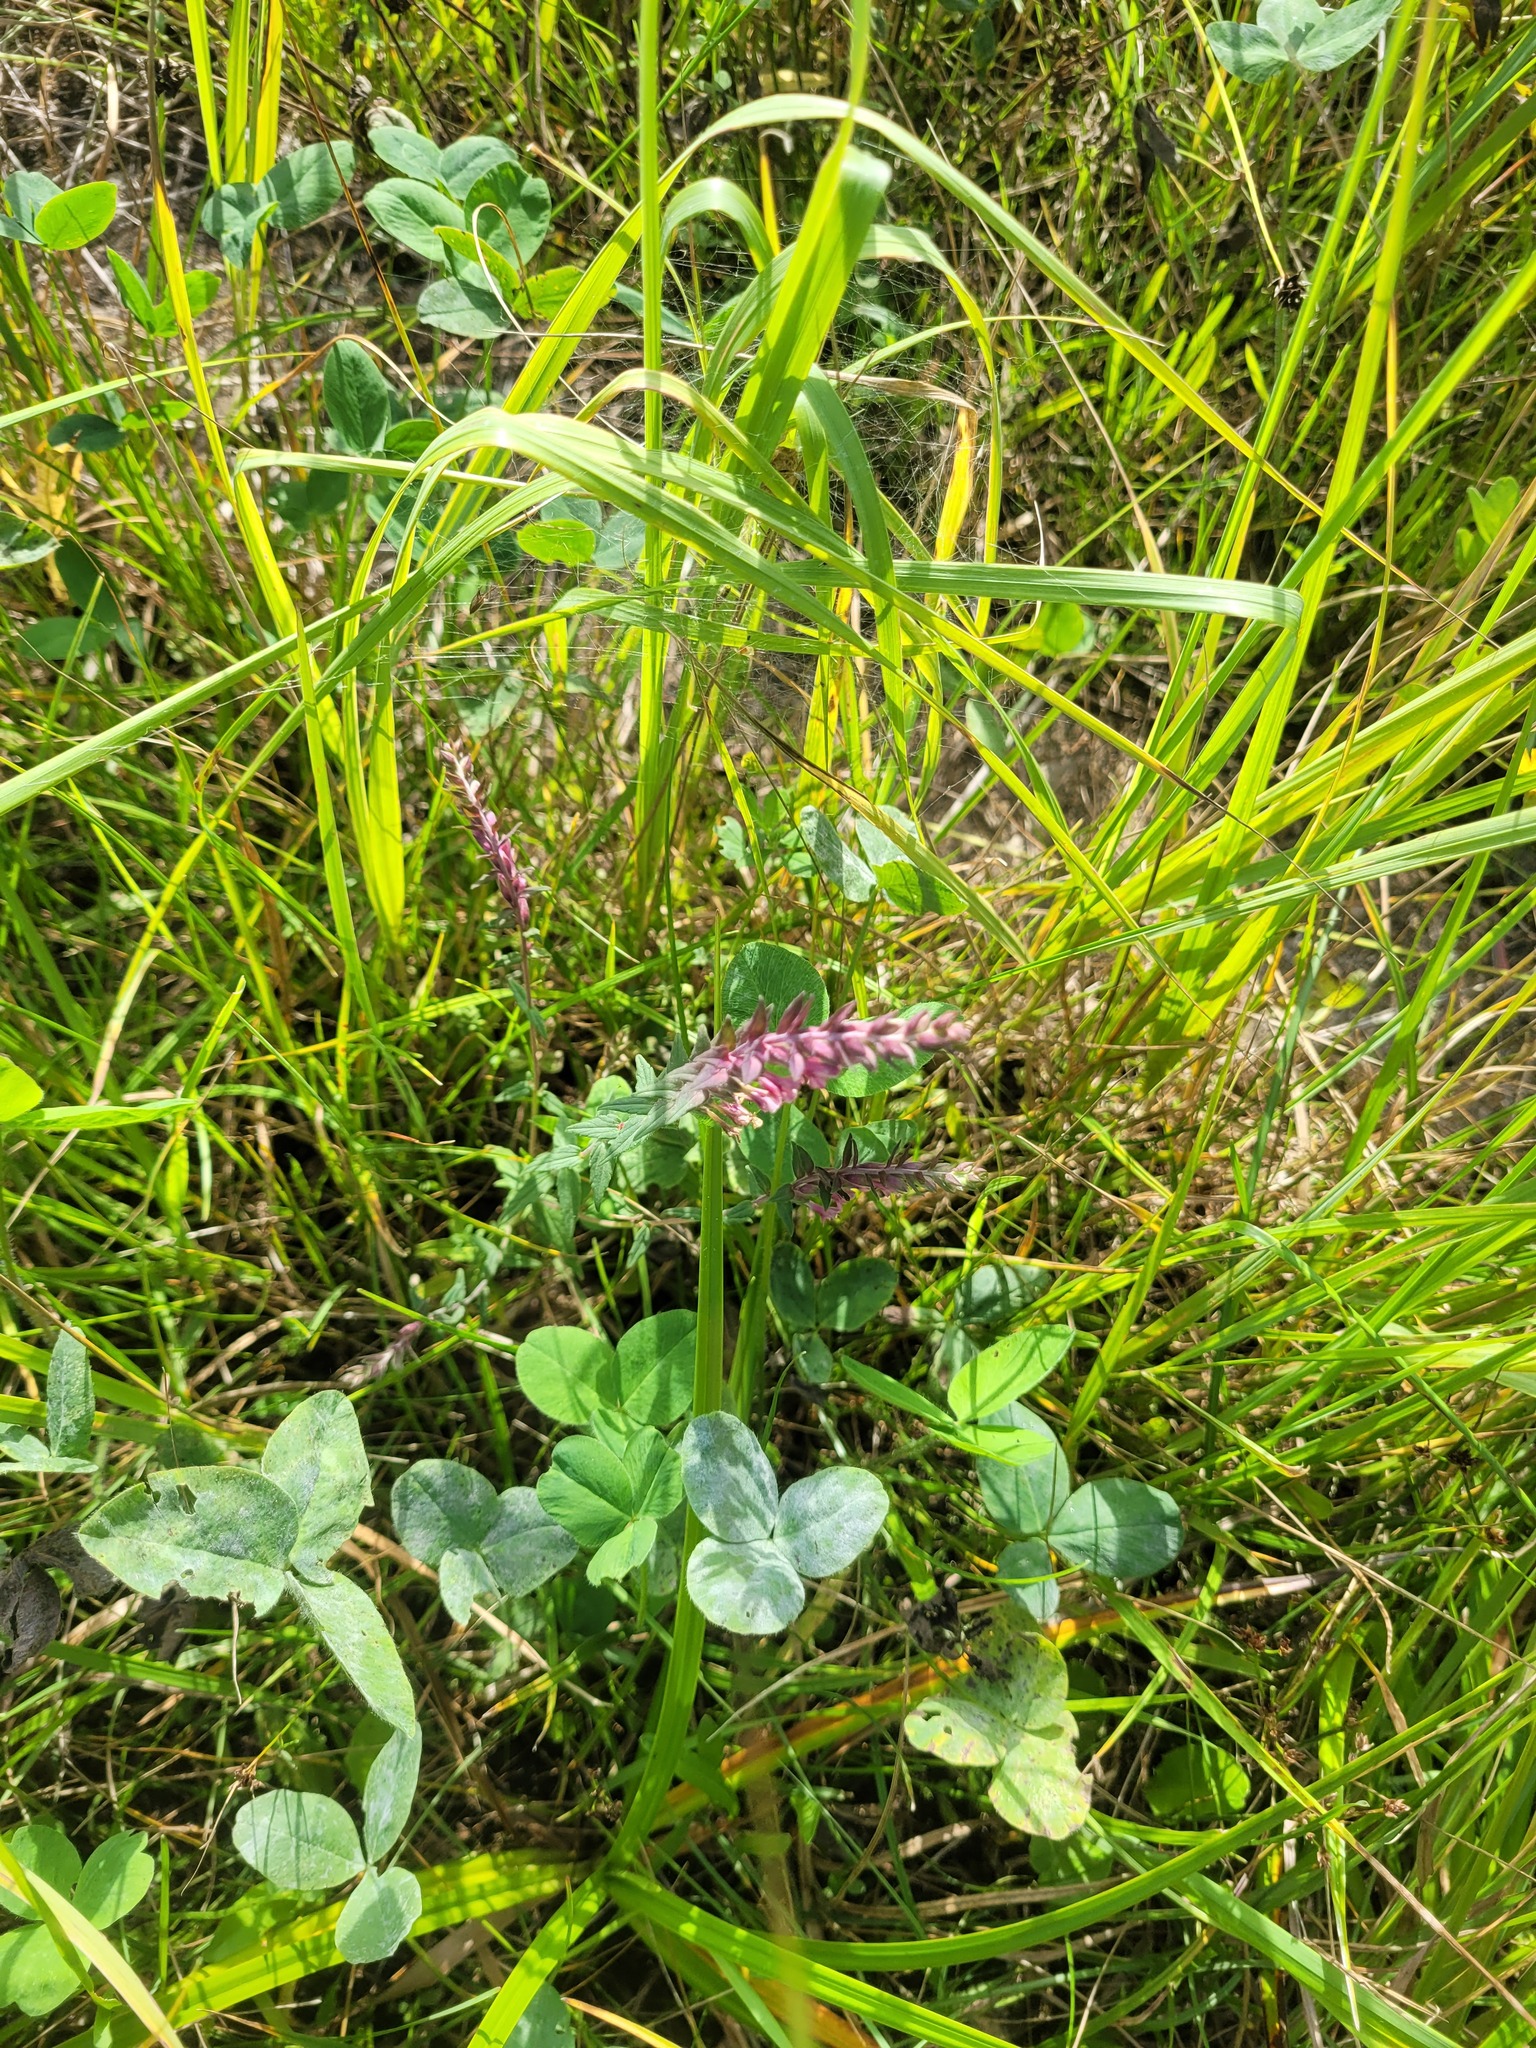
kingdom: Plantae
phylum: Tracheophyta
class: Magnoliopsida
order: Lamiales
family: Orobanchaceae
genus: Odontites
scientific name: Odontites vulgaris
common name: Broomrape
